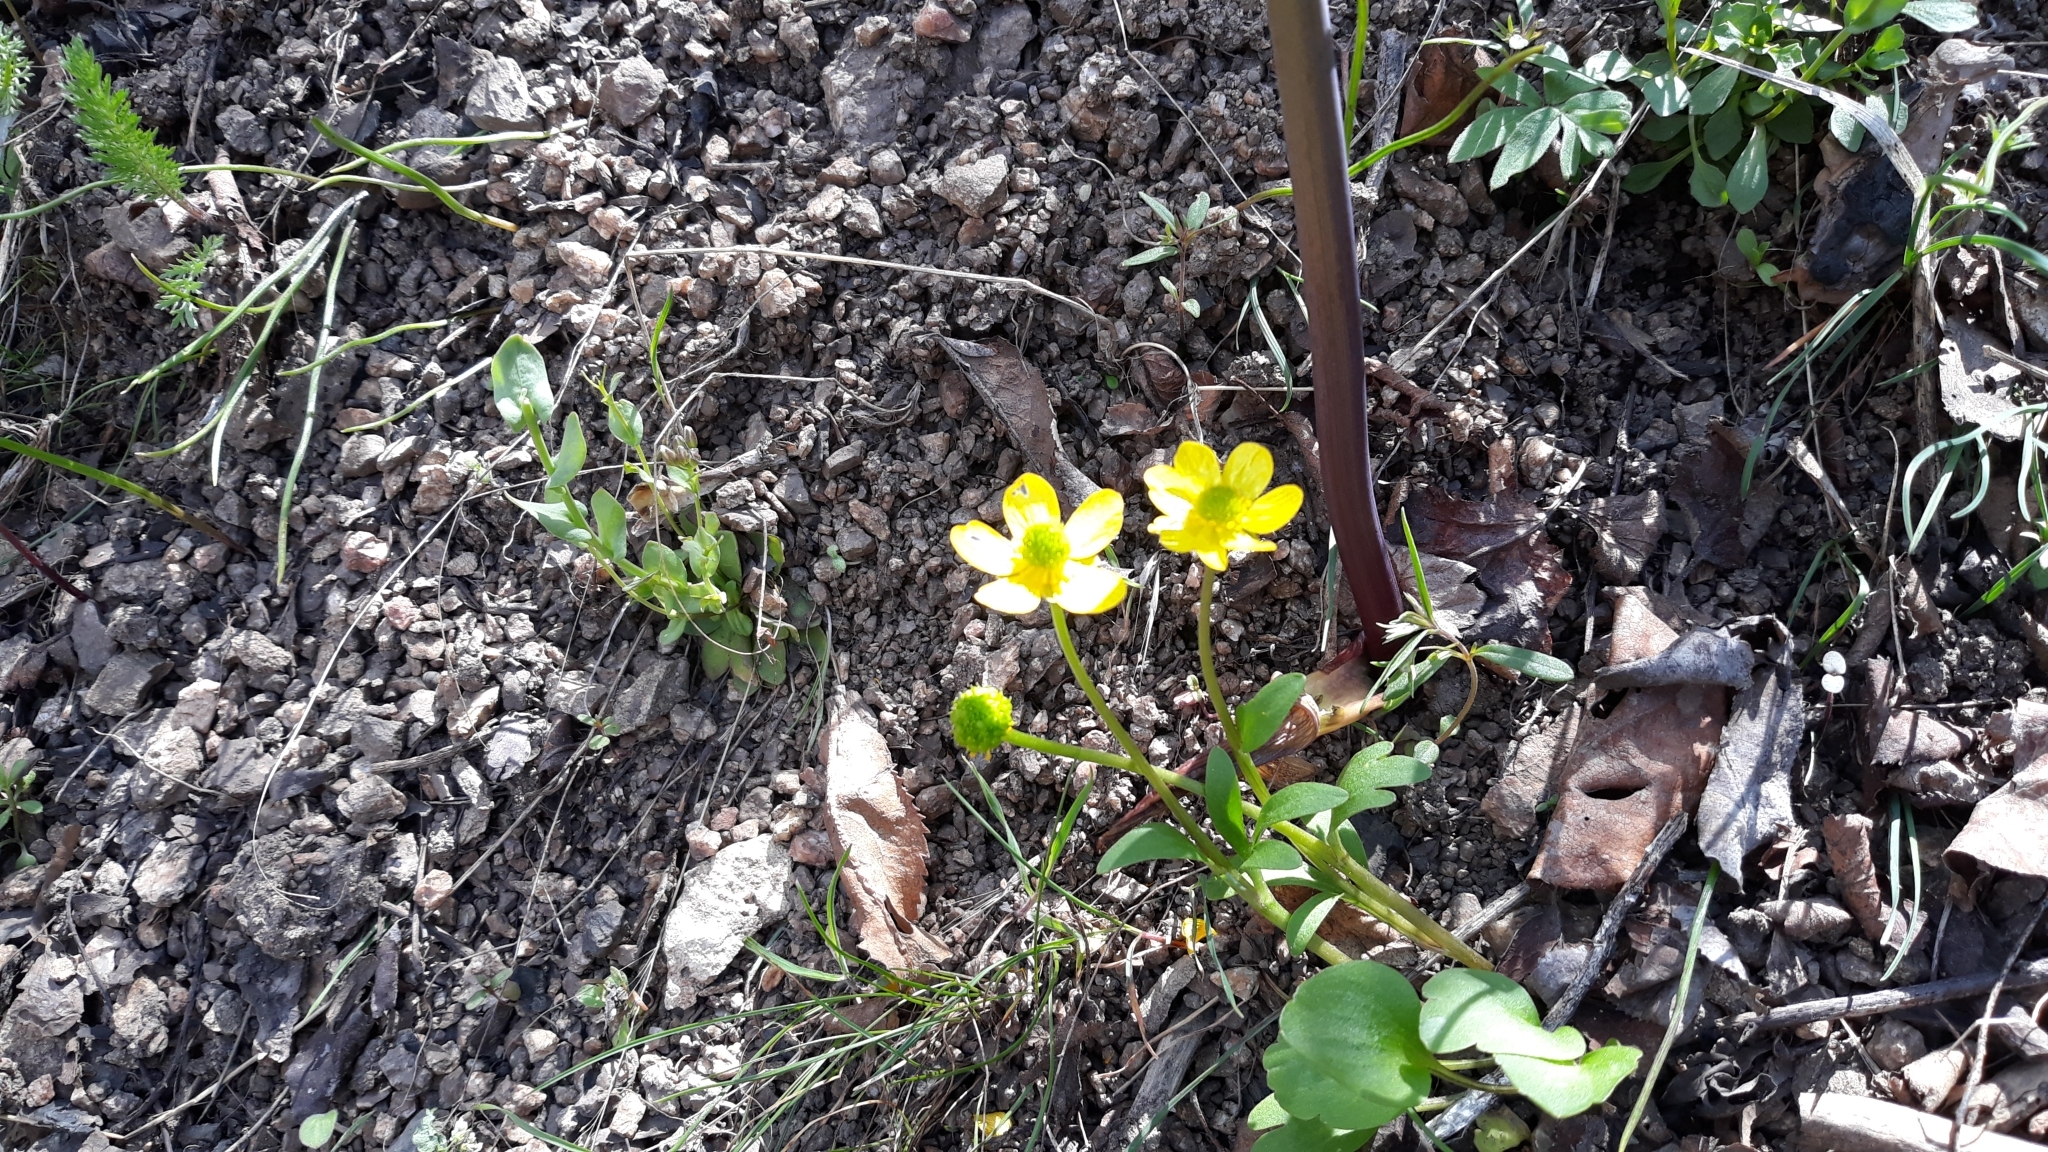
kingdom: Plantae
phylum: Tracheophyta
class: Magnoliopsida
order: Ranunculales
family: Ranunculaceae
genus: Ranunculus
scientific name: Ranunculus glaberrimus
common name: Sagebrush buttercup
